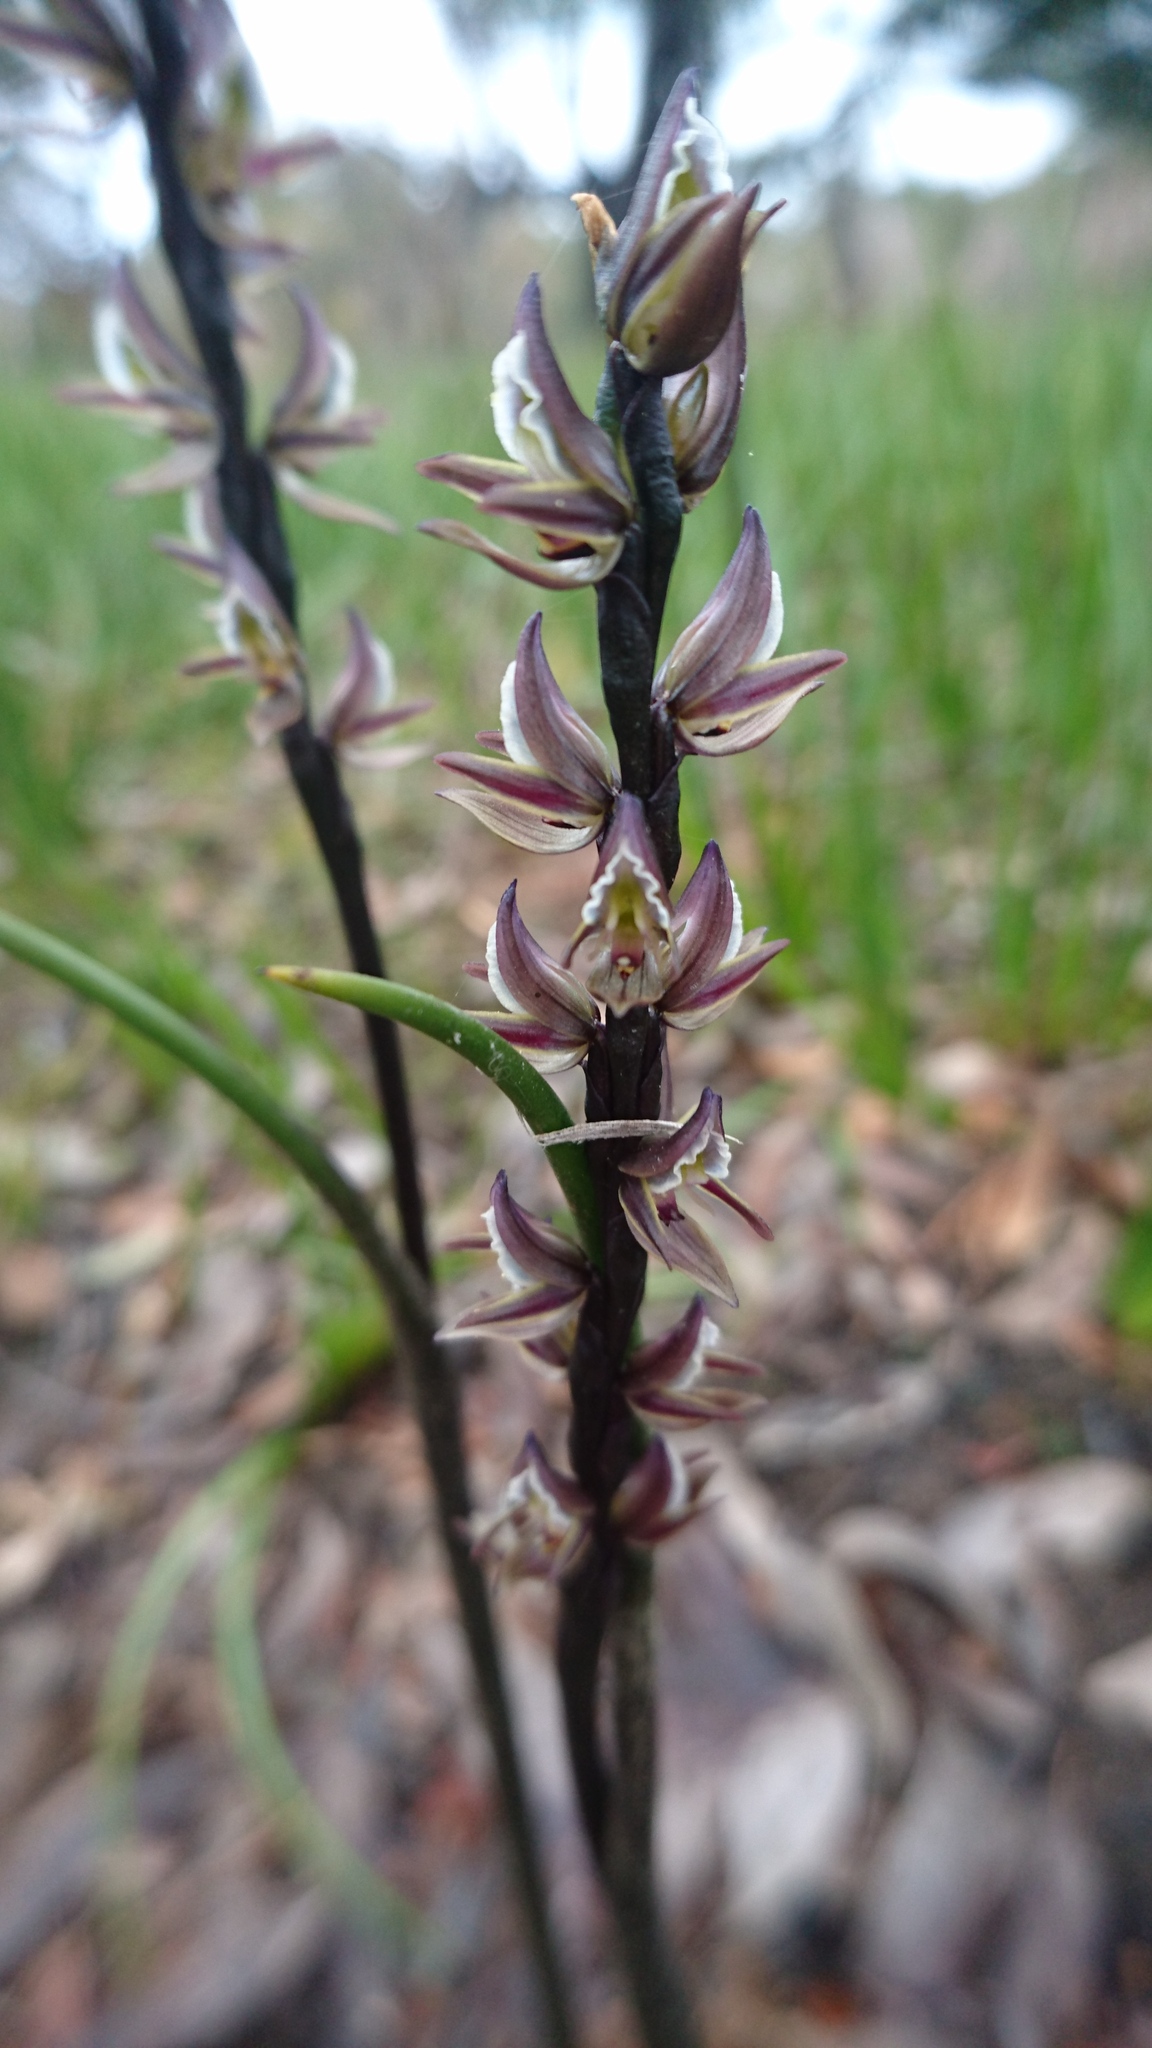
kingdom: Plantae
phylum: Tracheophyta
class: Liliopsida
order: Asparagales
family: Orchidaceae
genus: Prasophyllum
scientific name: Prasophyllum elatum
